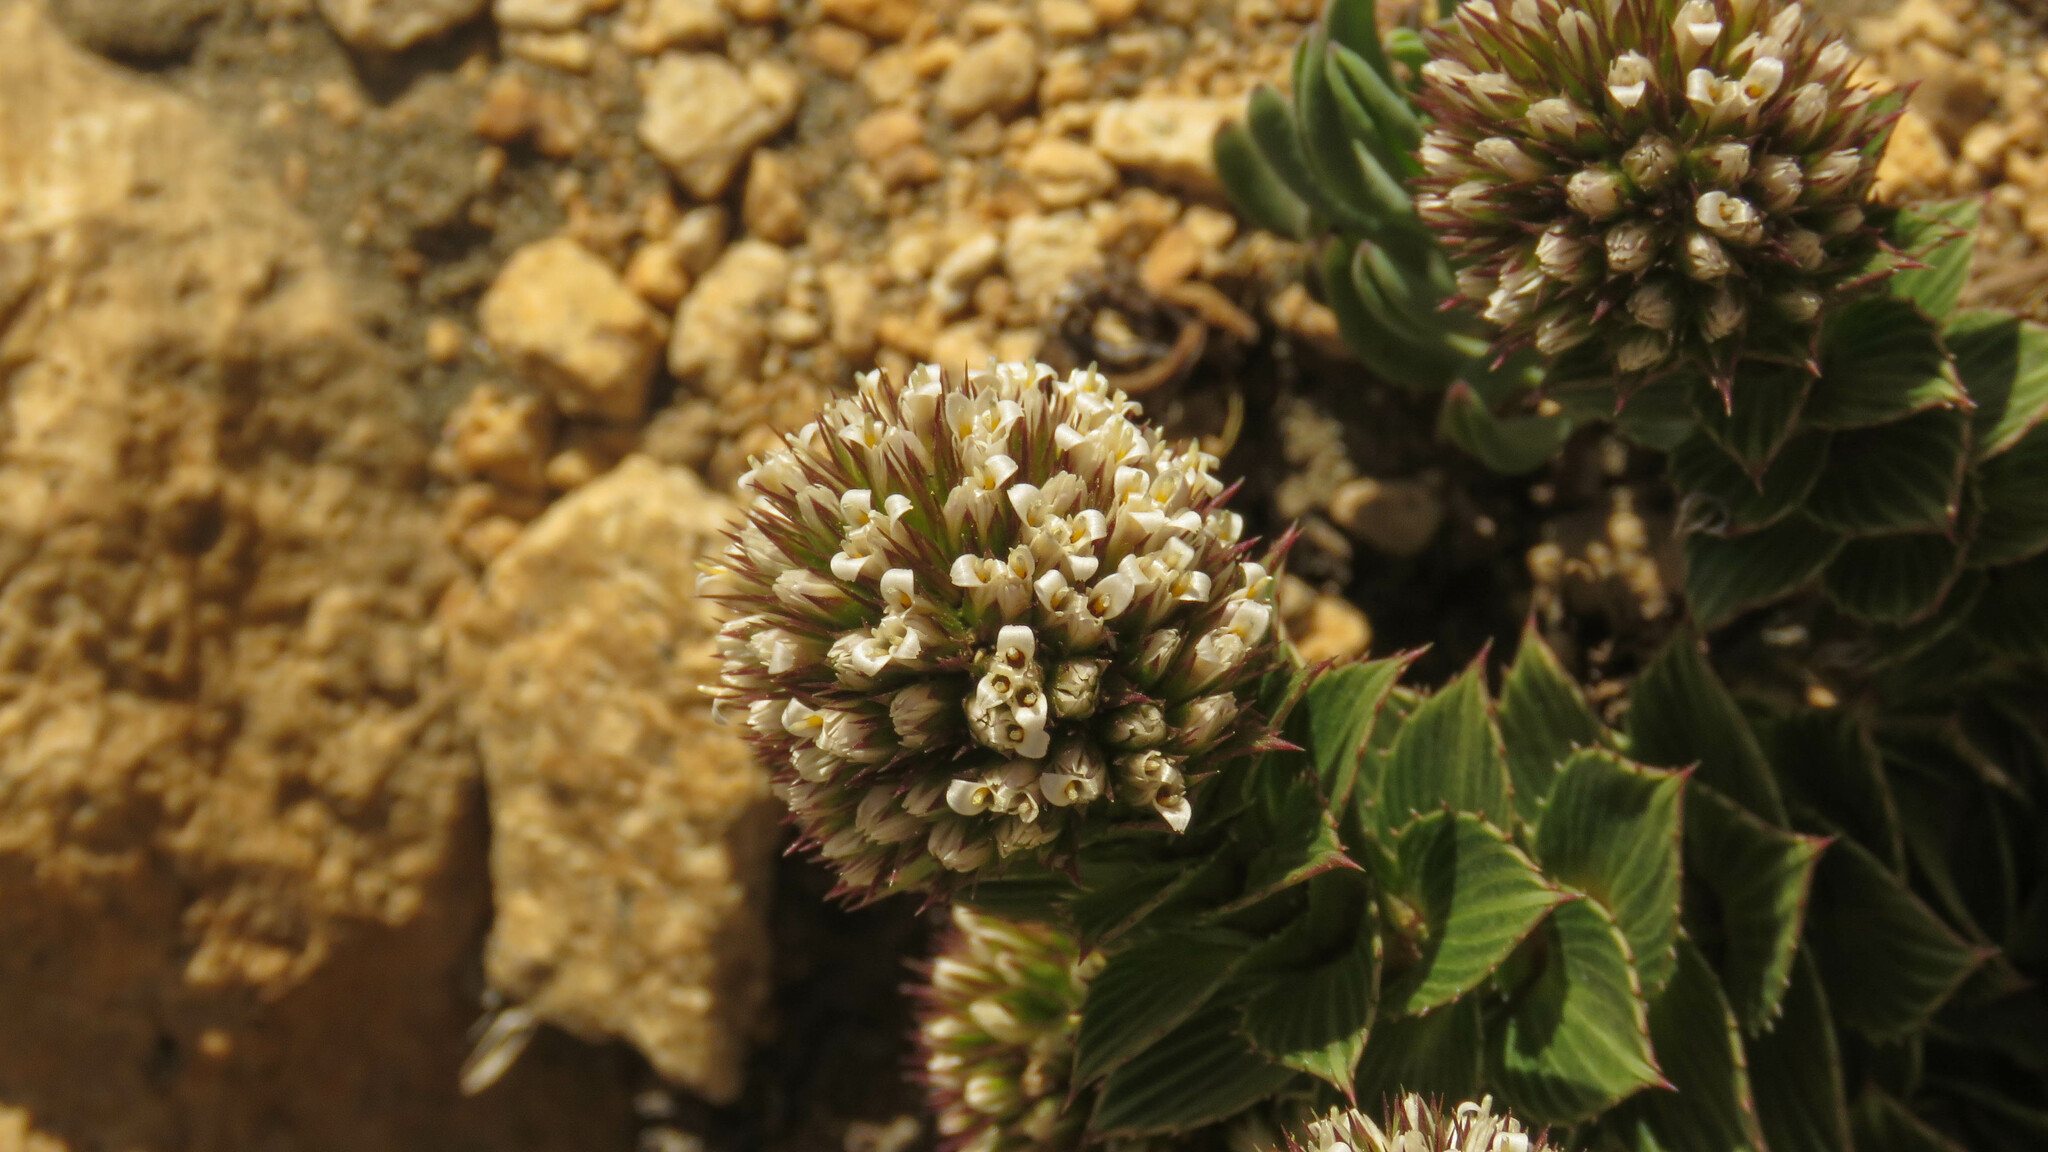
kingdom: Plantae
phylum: Tracheophyta
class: Magnoliopsida
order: Asterales
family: Asteraceae
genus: Nassauvia
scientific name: Nassauvia pulcherrima
